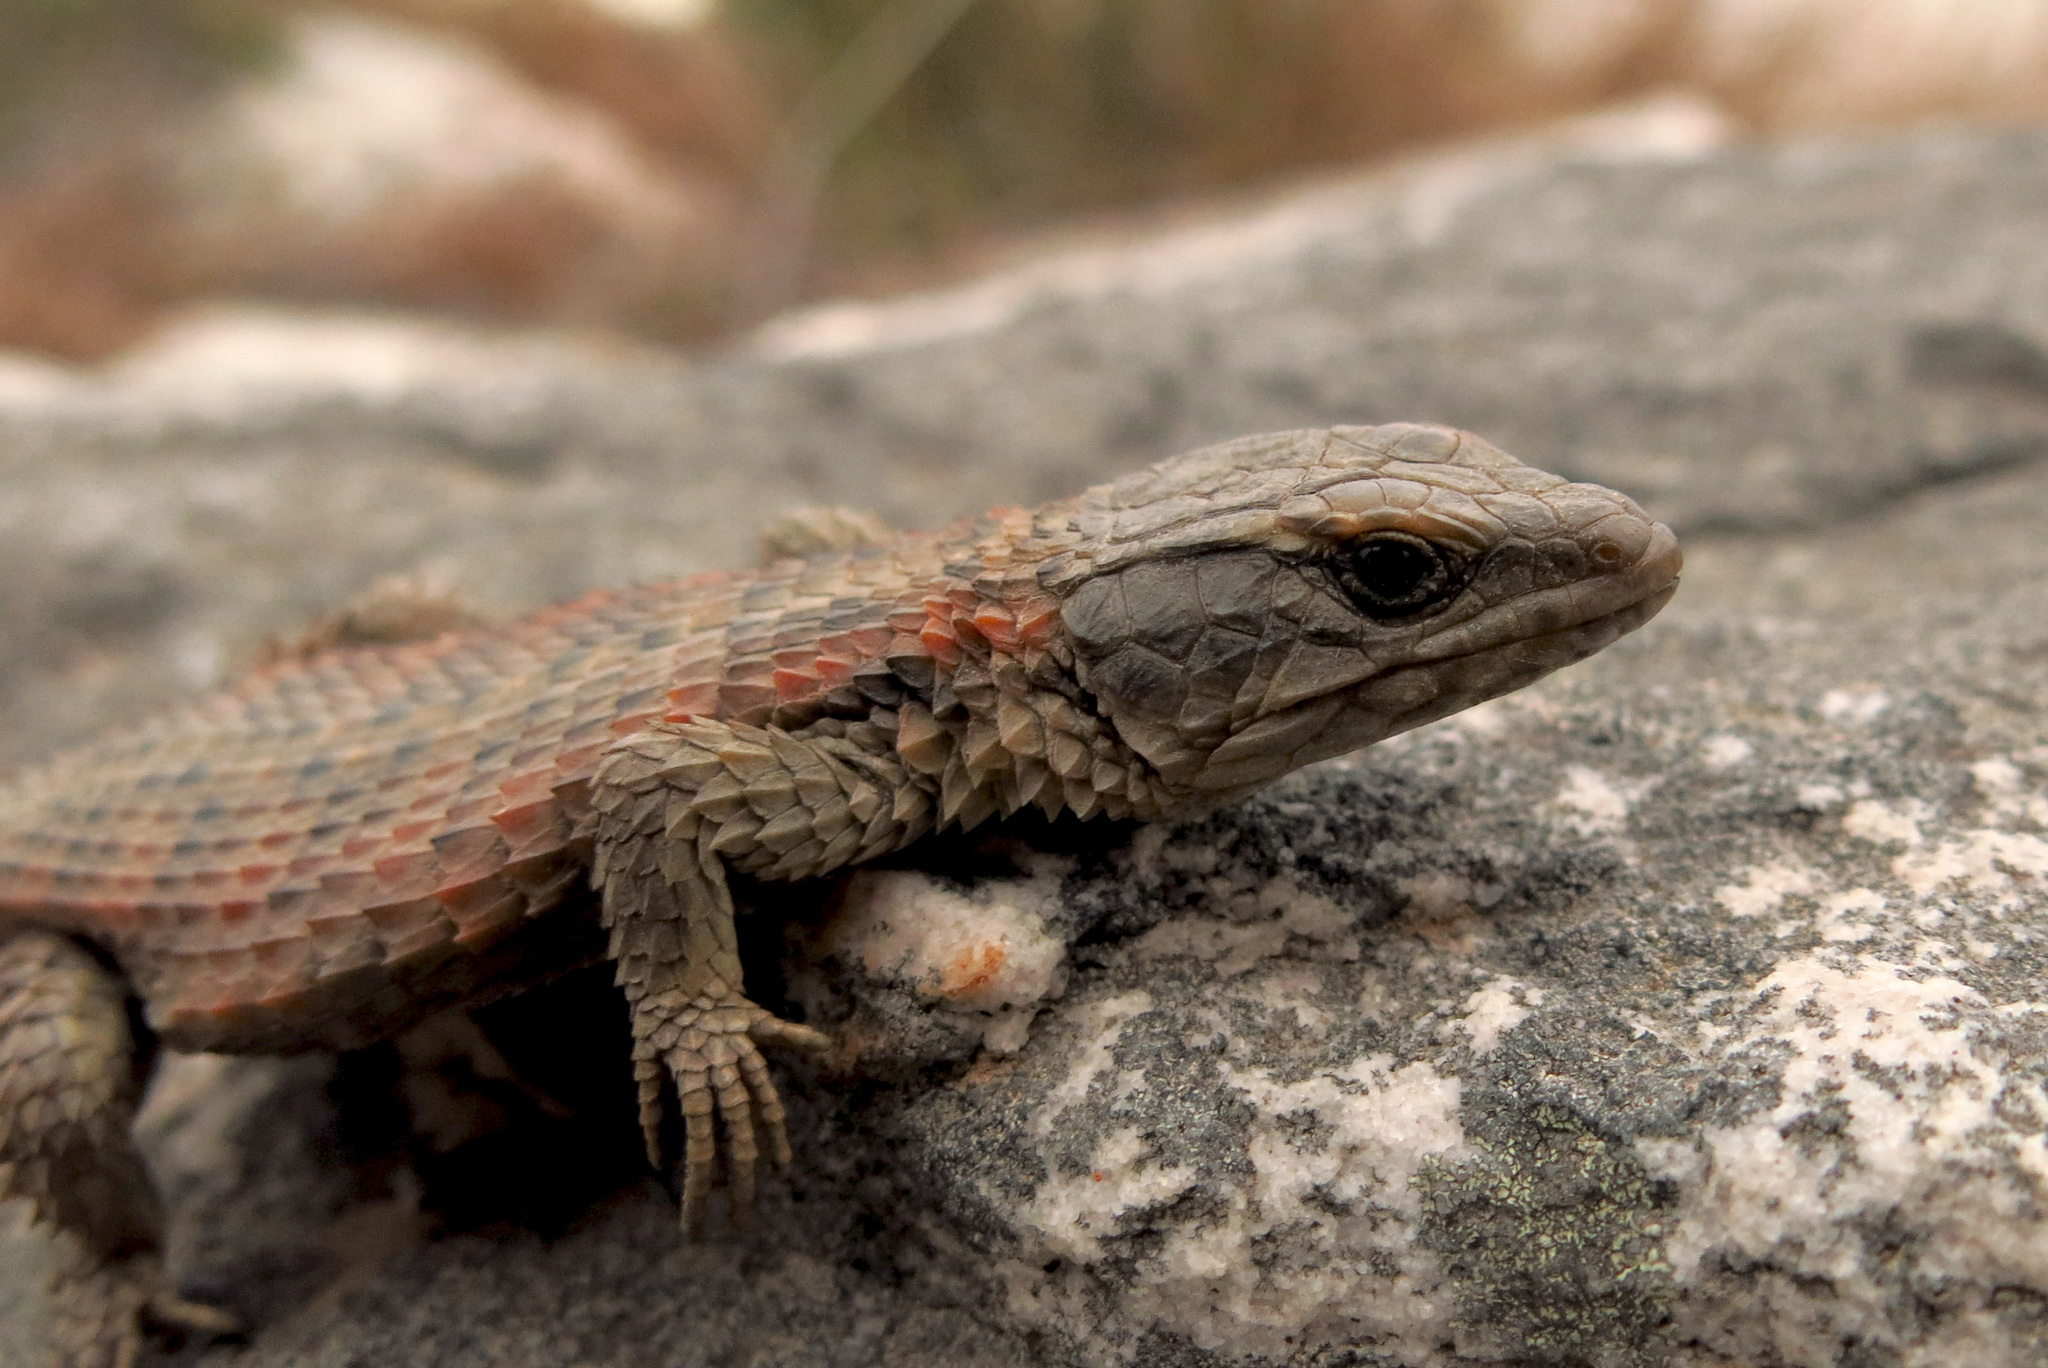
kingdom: Animalia
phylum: Chordata
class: Squamata
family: Cordylidae
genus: Cordylus
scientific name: Cordylus cordylus
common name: Cape girdled lizard
